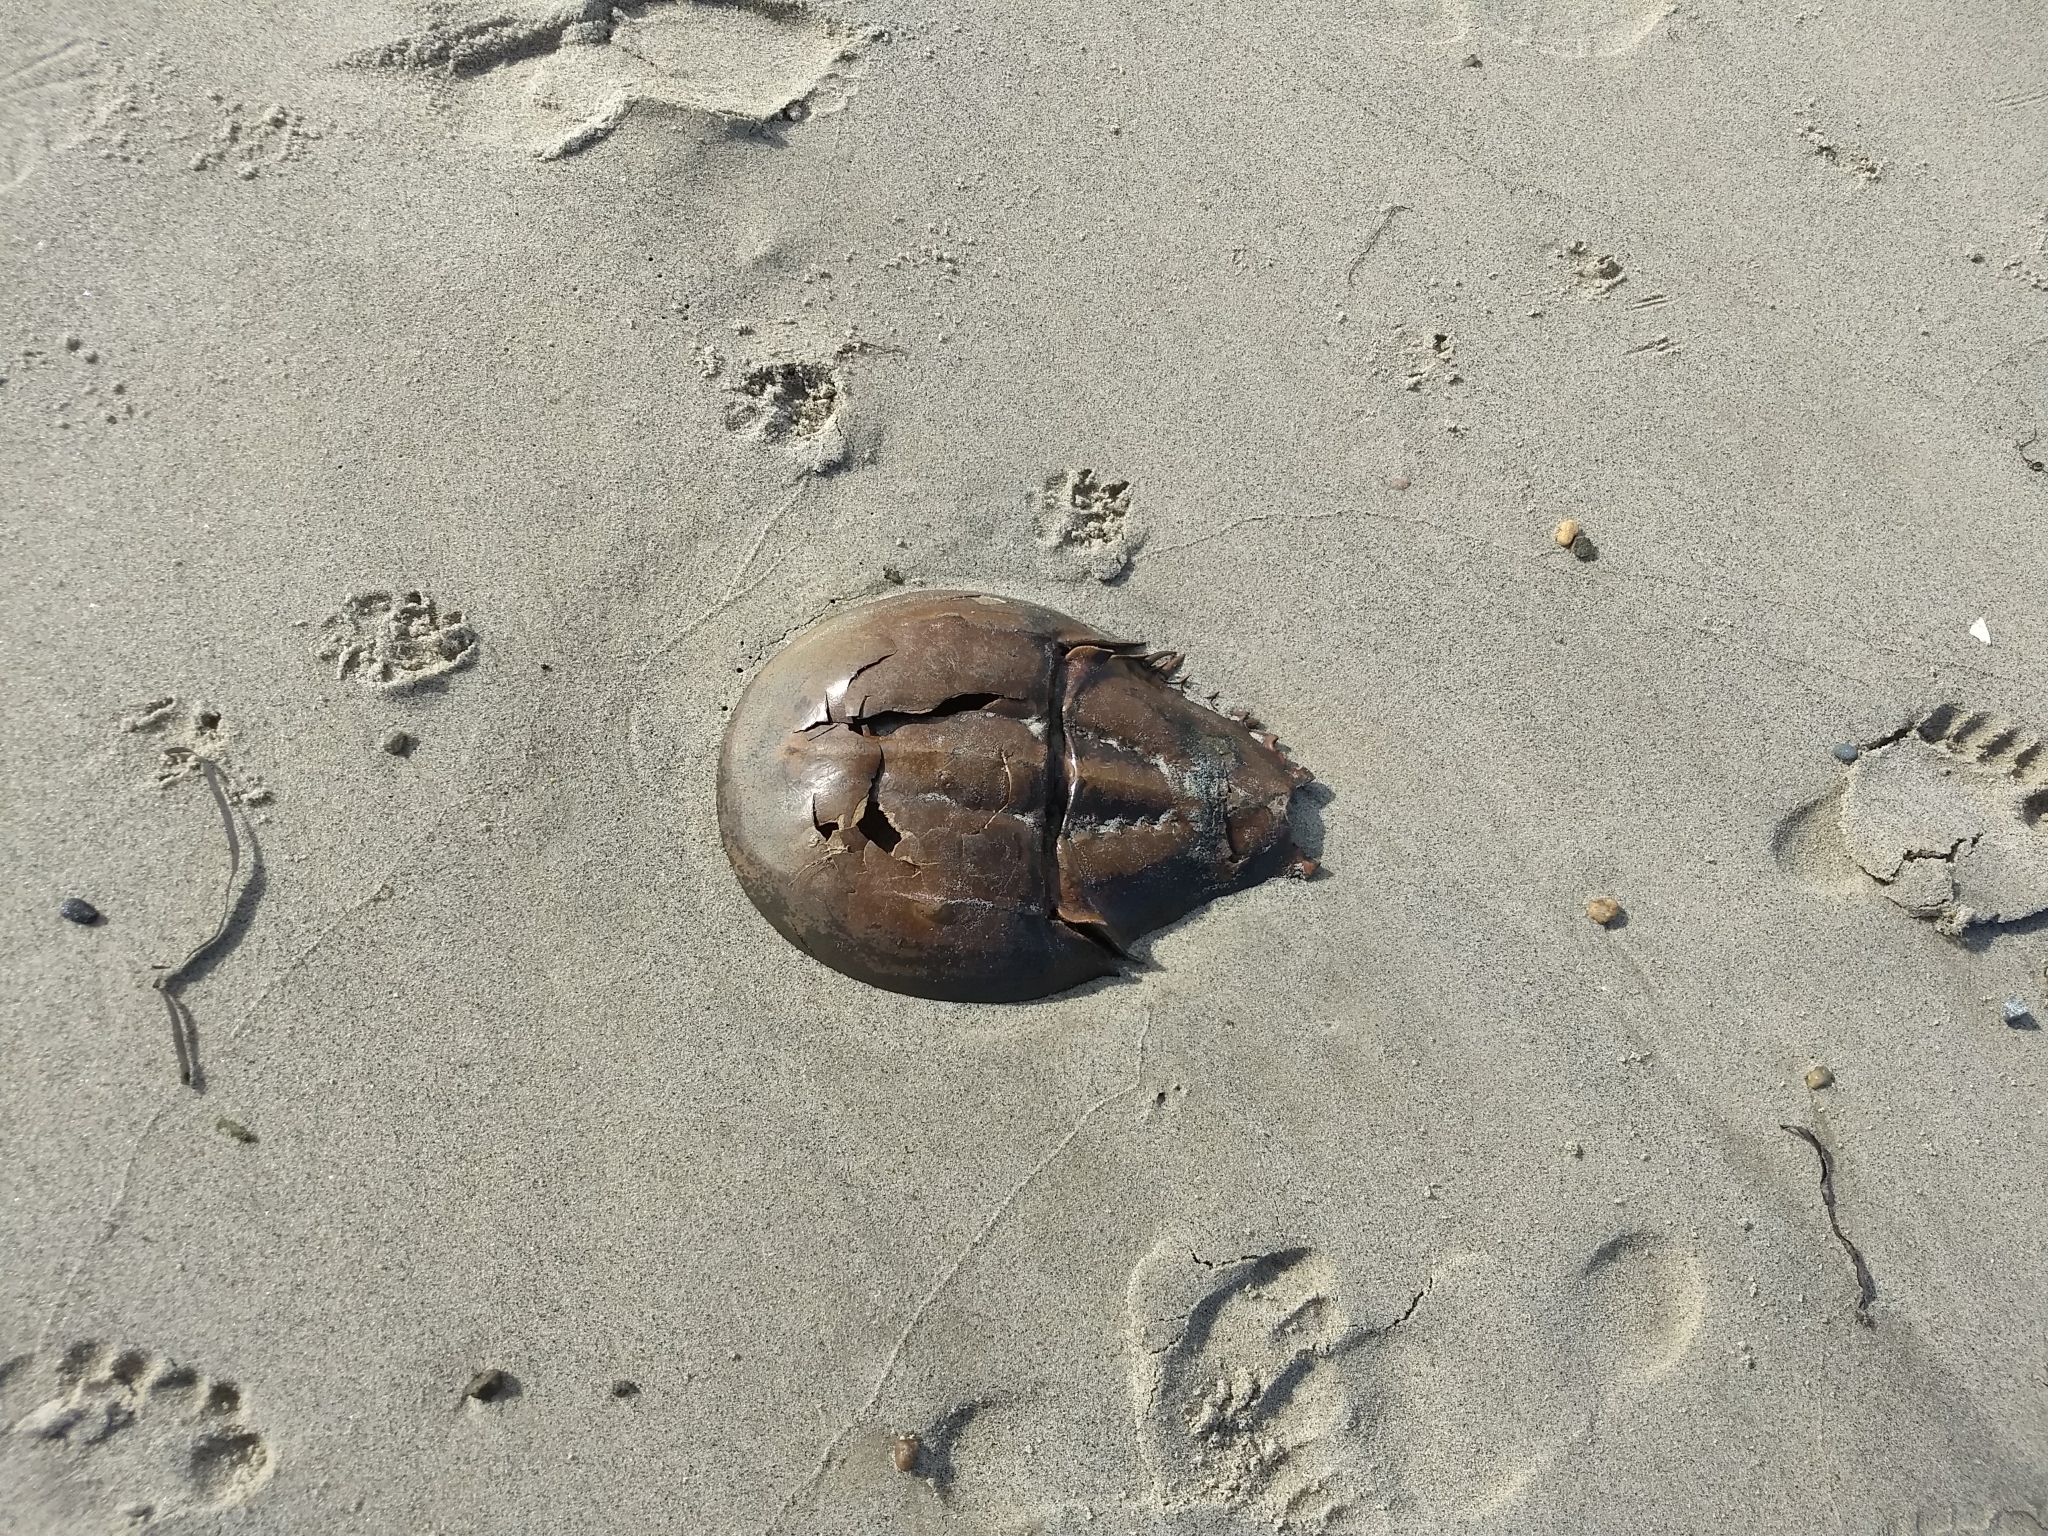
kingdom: Animalia
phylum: Arthropoda
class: Merostomata
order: Xiphosurida
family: Limulidae
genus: Limulus
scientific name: Limulus polyphemus
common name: Horseshoe crab
